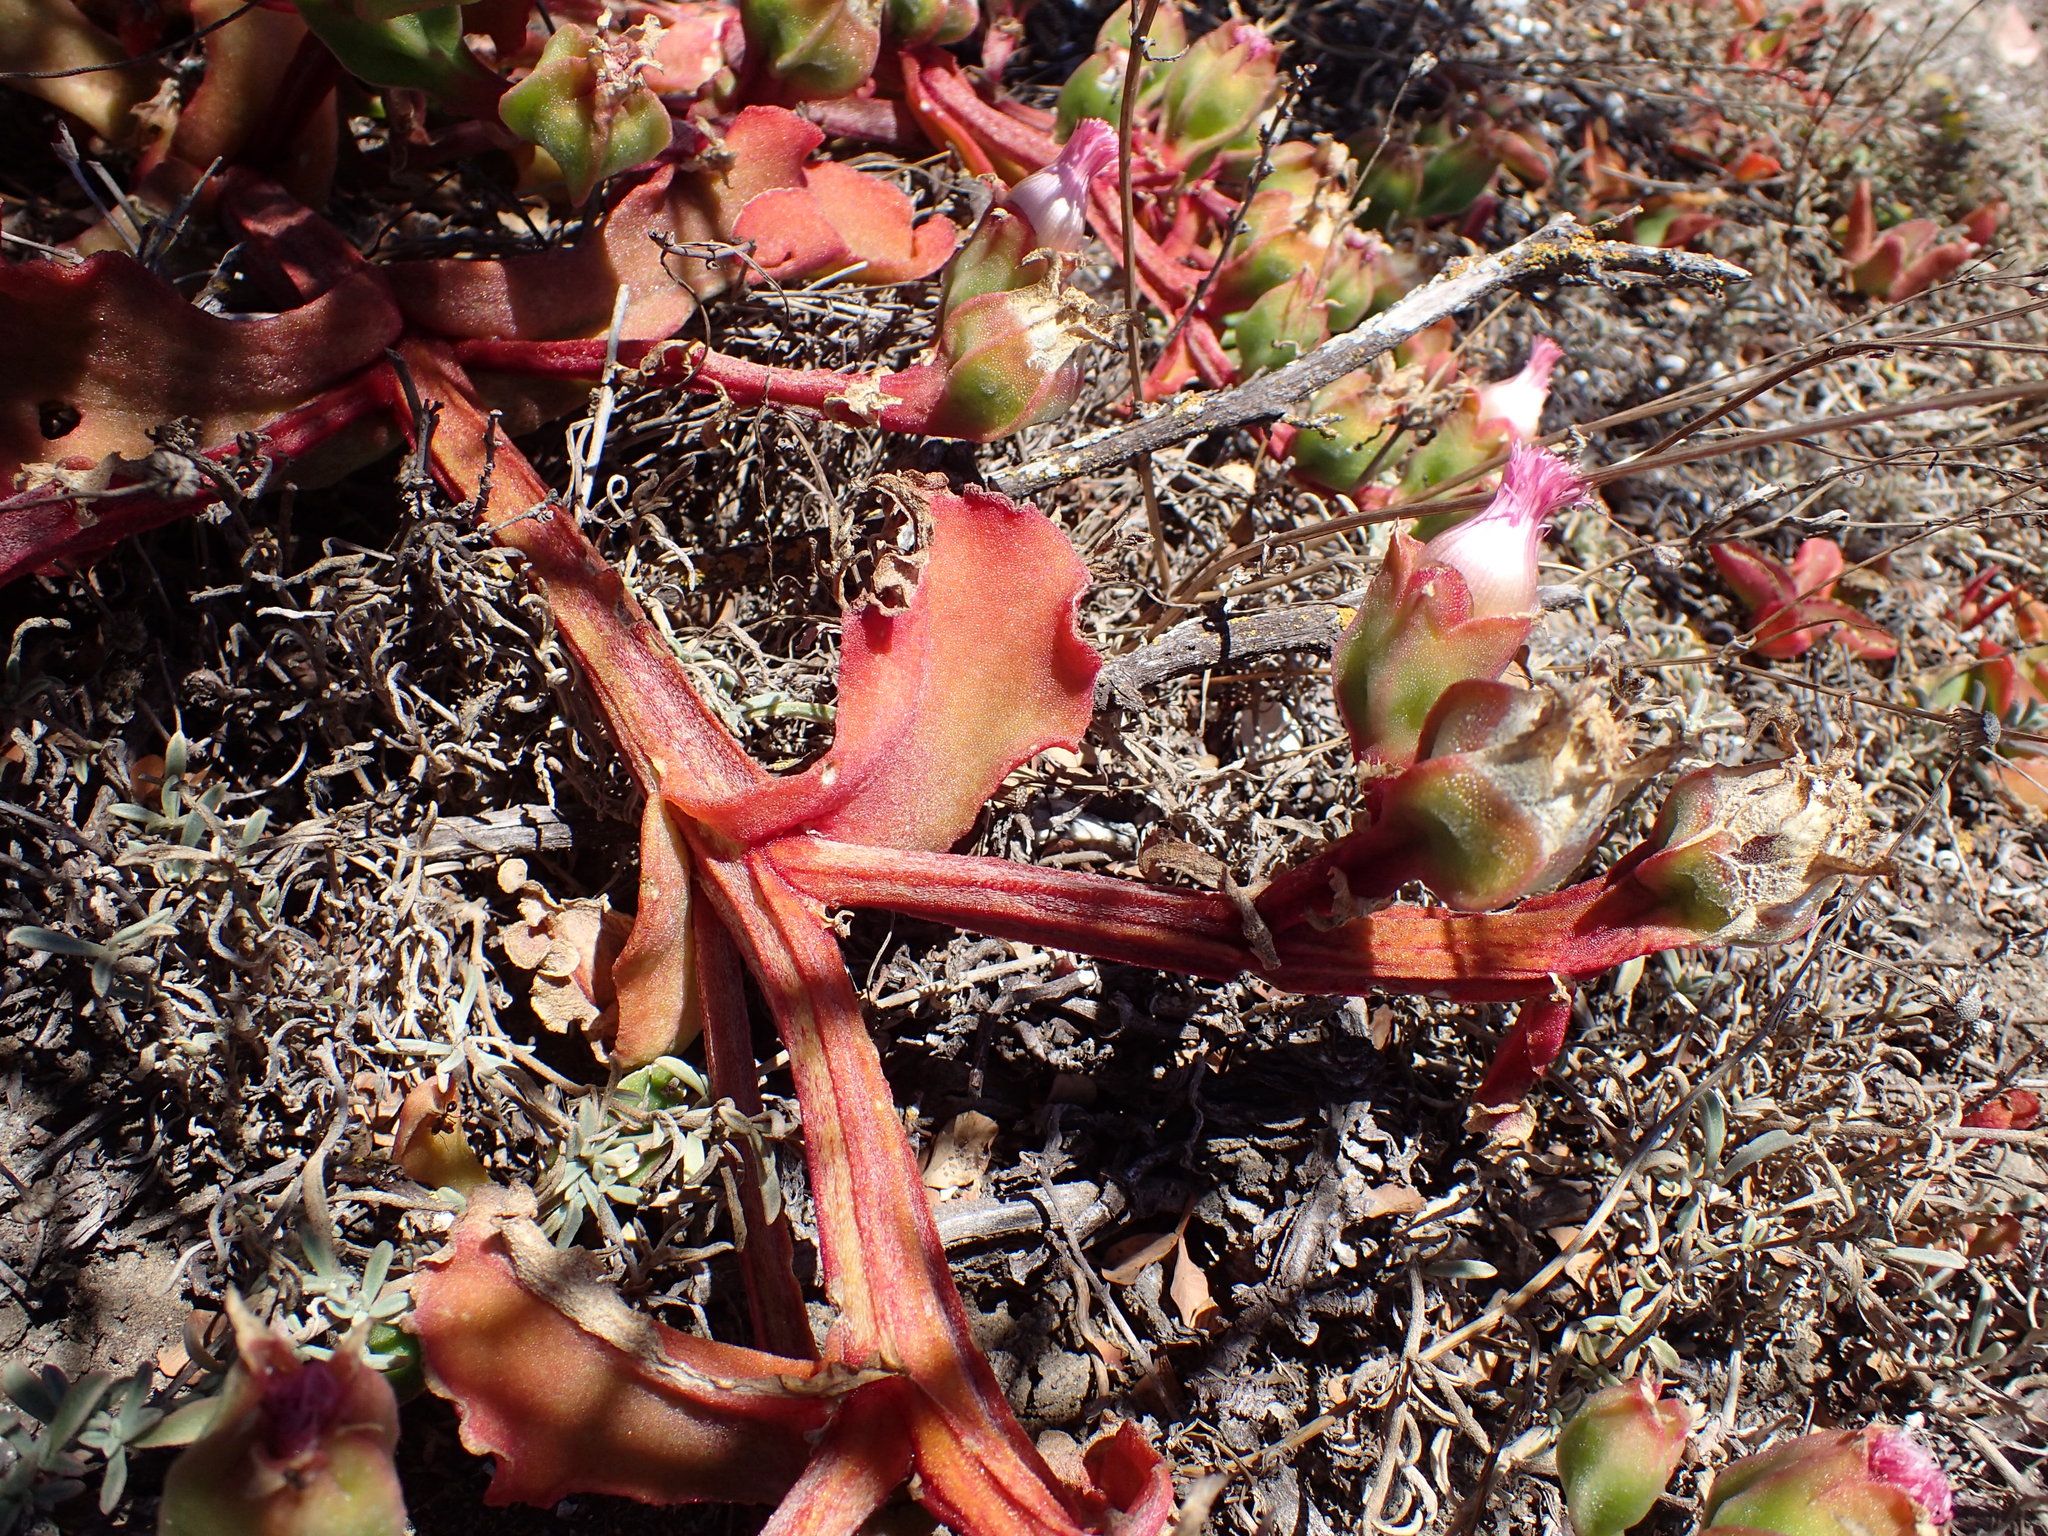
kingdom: Plantae
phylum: Tracheophyta
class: Magnoliopsida
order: Caryophyllales
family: Aizoaceae
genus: Mesembryanthemum
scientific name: Mesembryanthemum guerichianum
